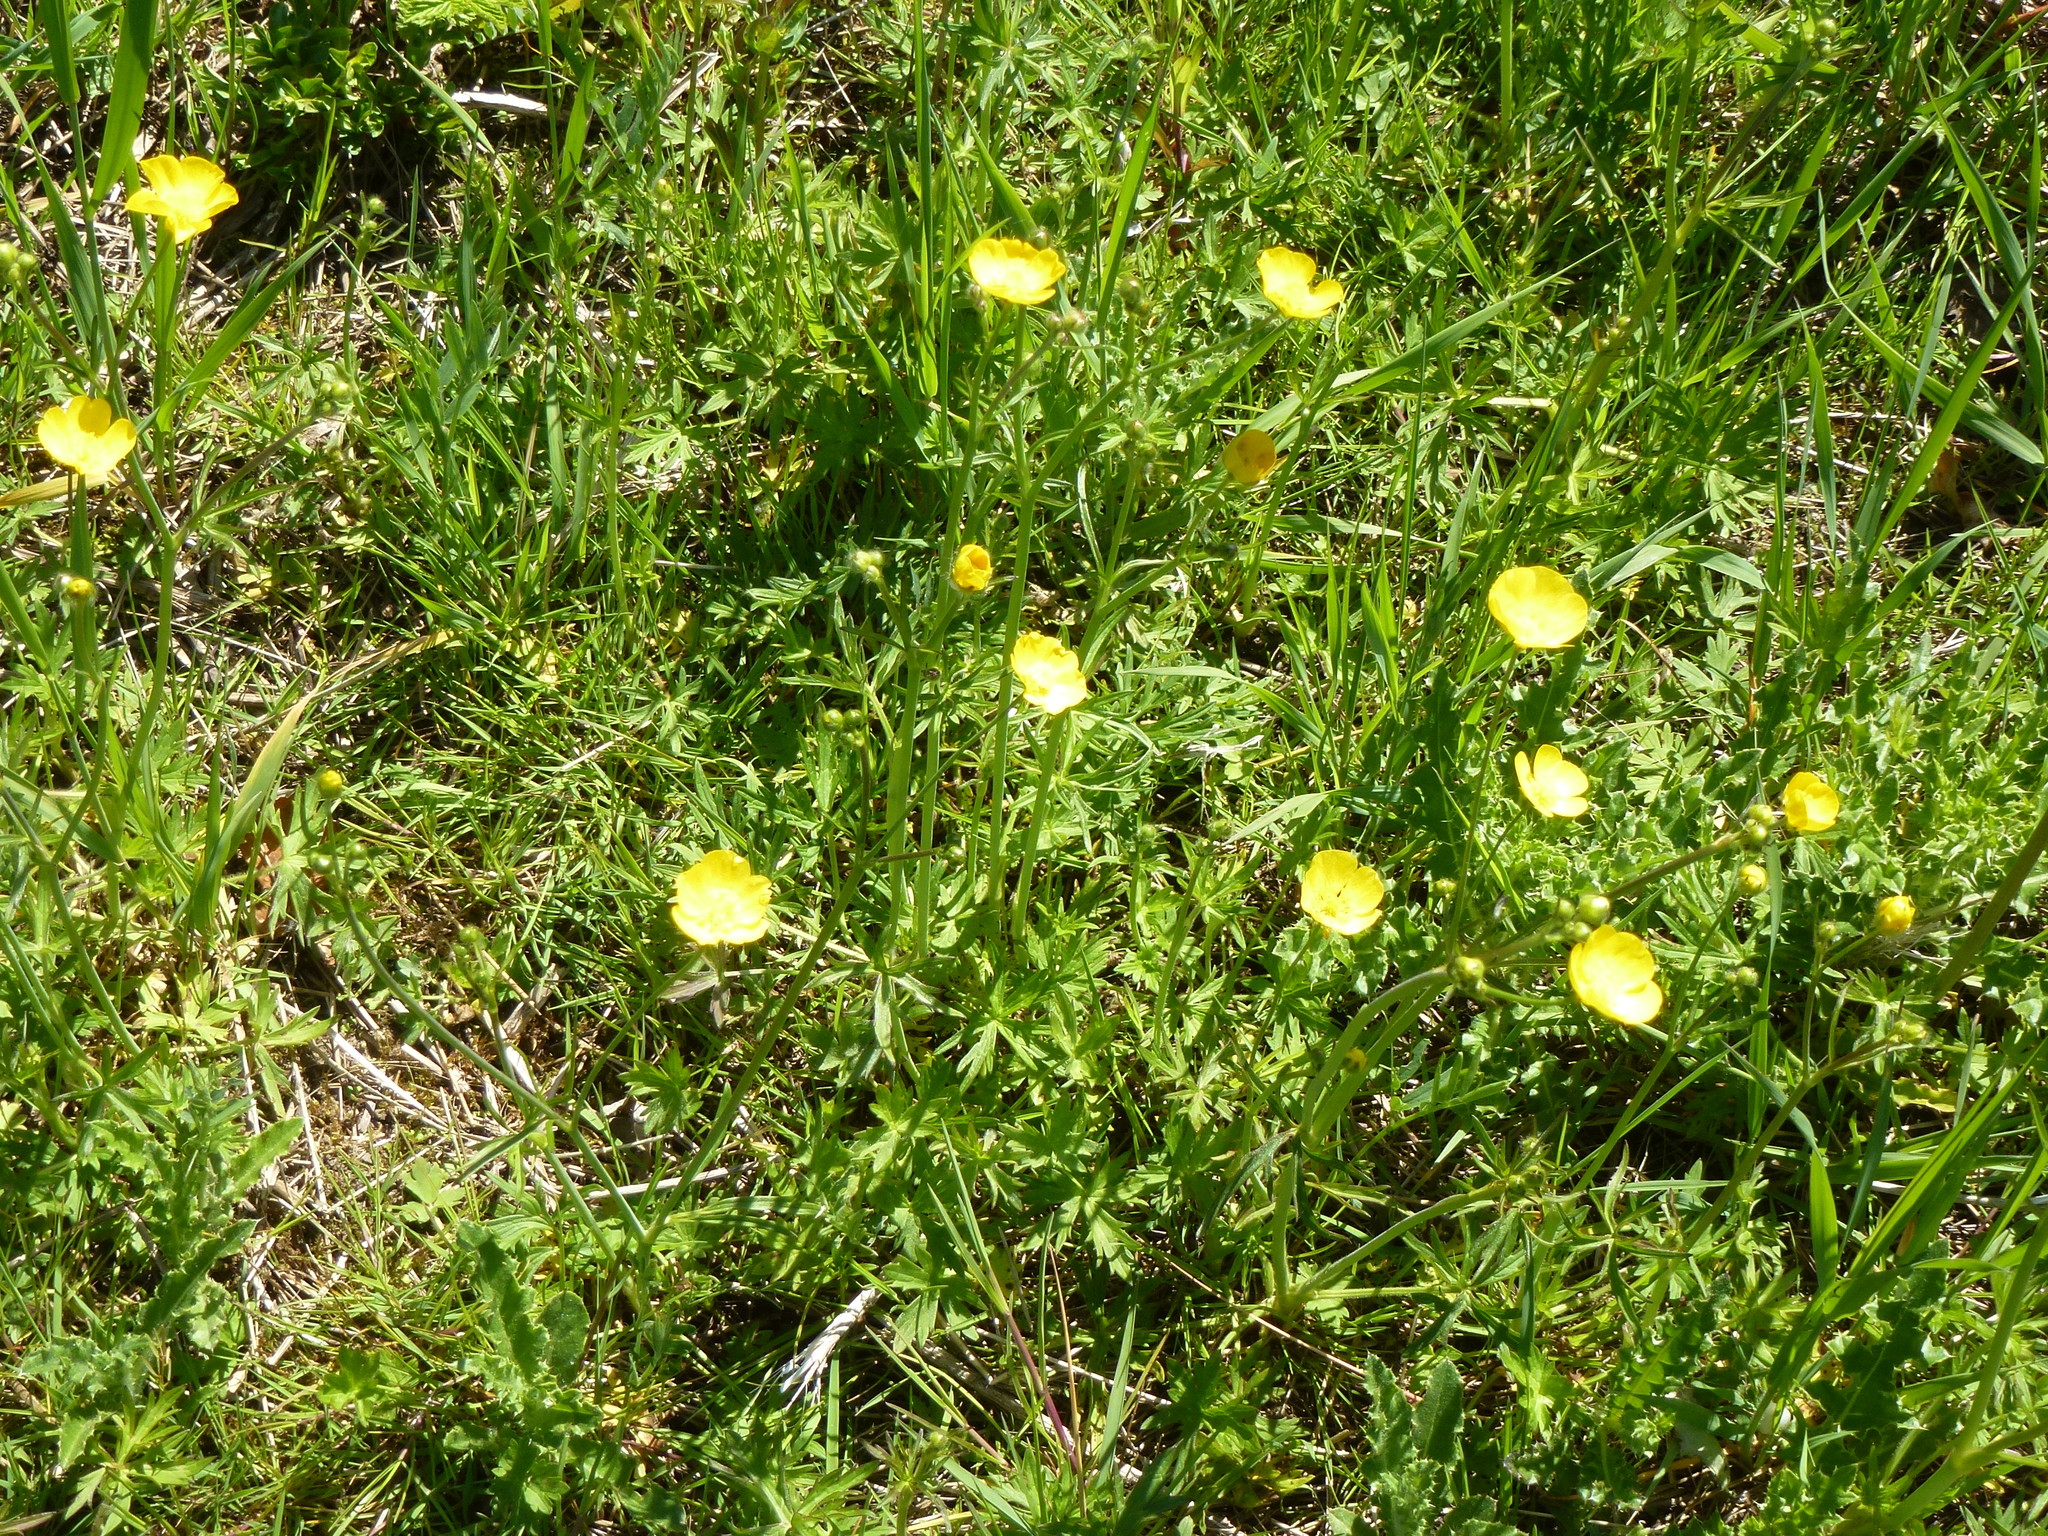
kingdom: Plantae
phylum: Tracheophyta
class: Magnoliopsida
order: Ranunculales
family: Ranunculaceae
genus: Ranunculus
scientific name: Ranunculus acris
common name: Meadow buttercup
